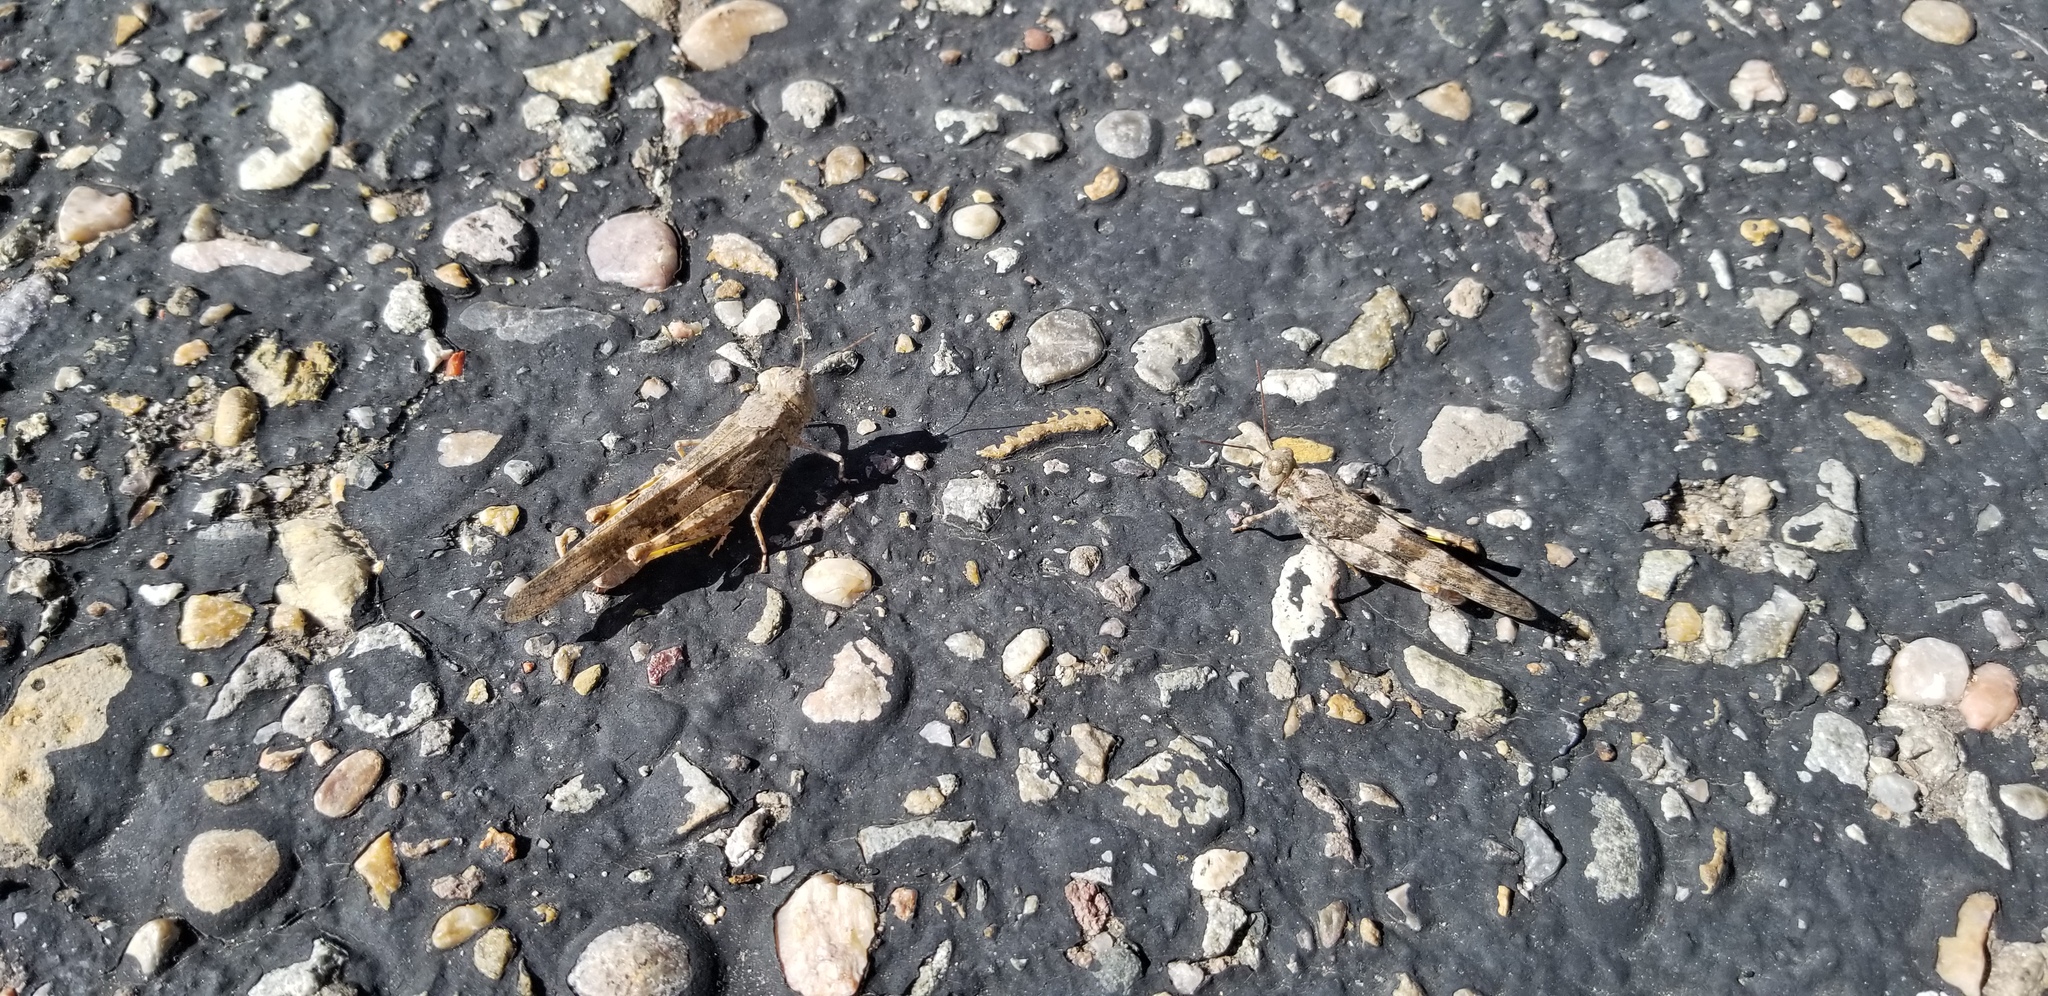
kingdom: Animalia
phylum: Arthropoda
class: Insecta
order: Orthoptera
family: Acrididae
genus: Trimerotropis
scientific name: Trimerotropis pallidipennis
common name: Pallid-winged grasshopper
